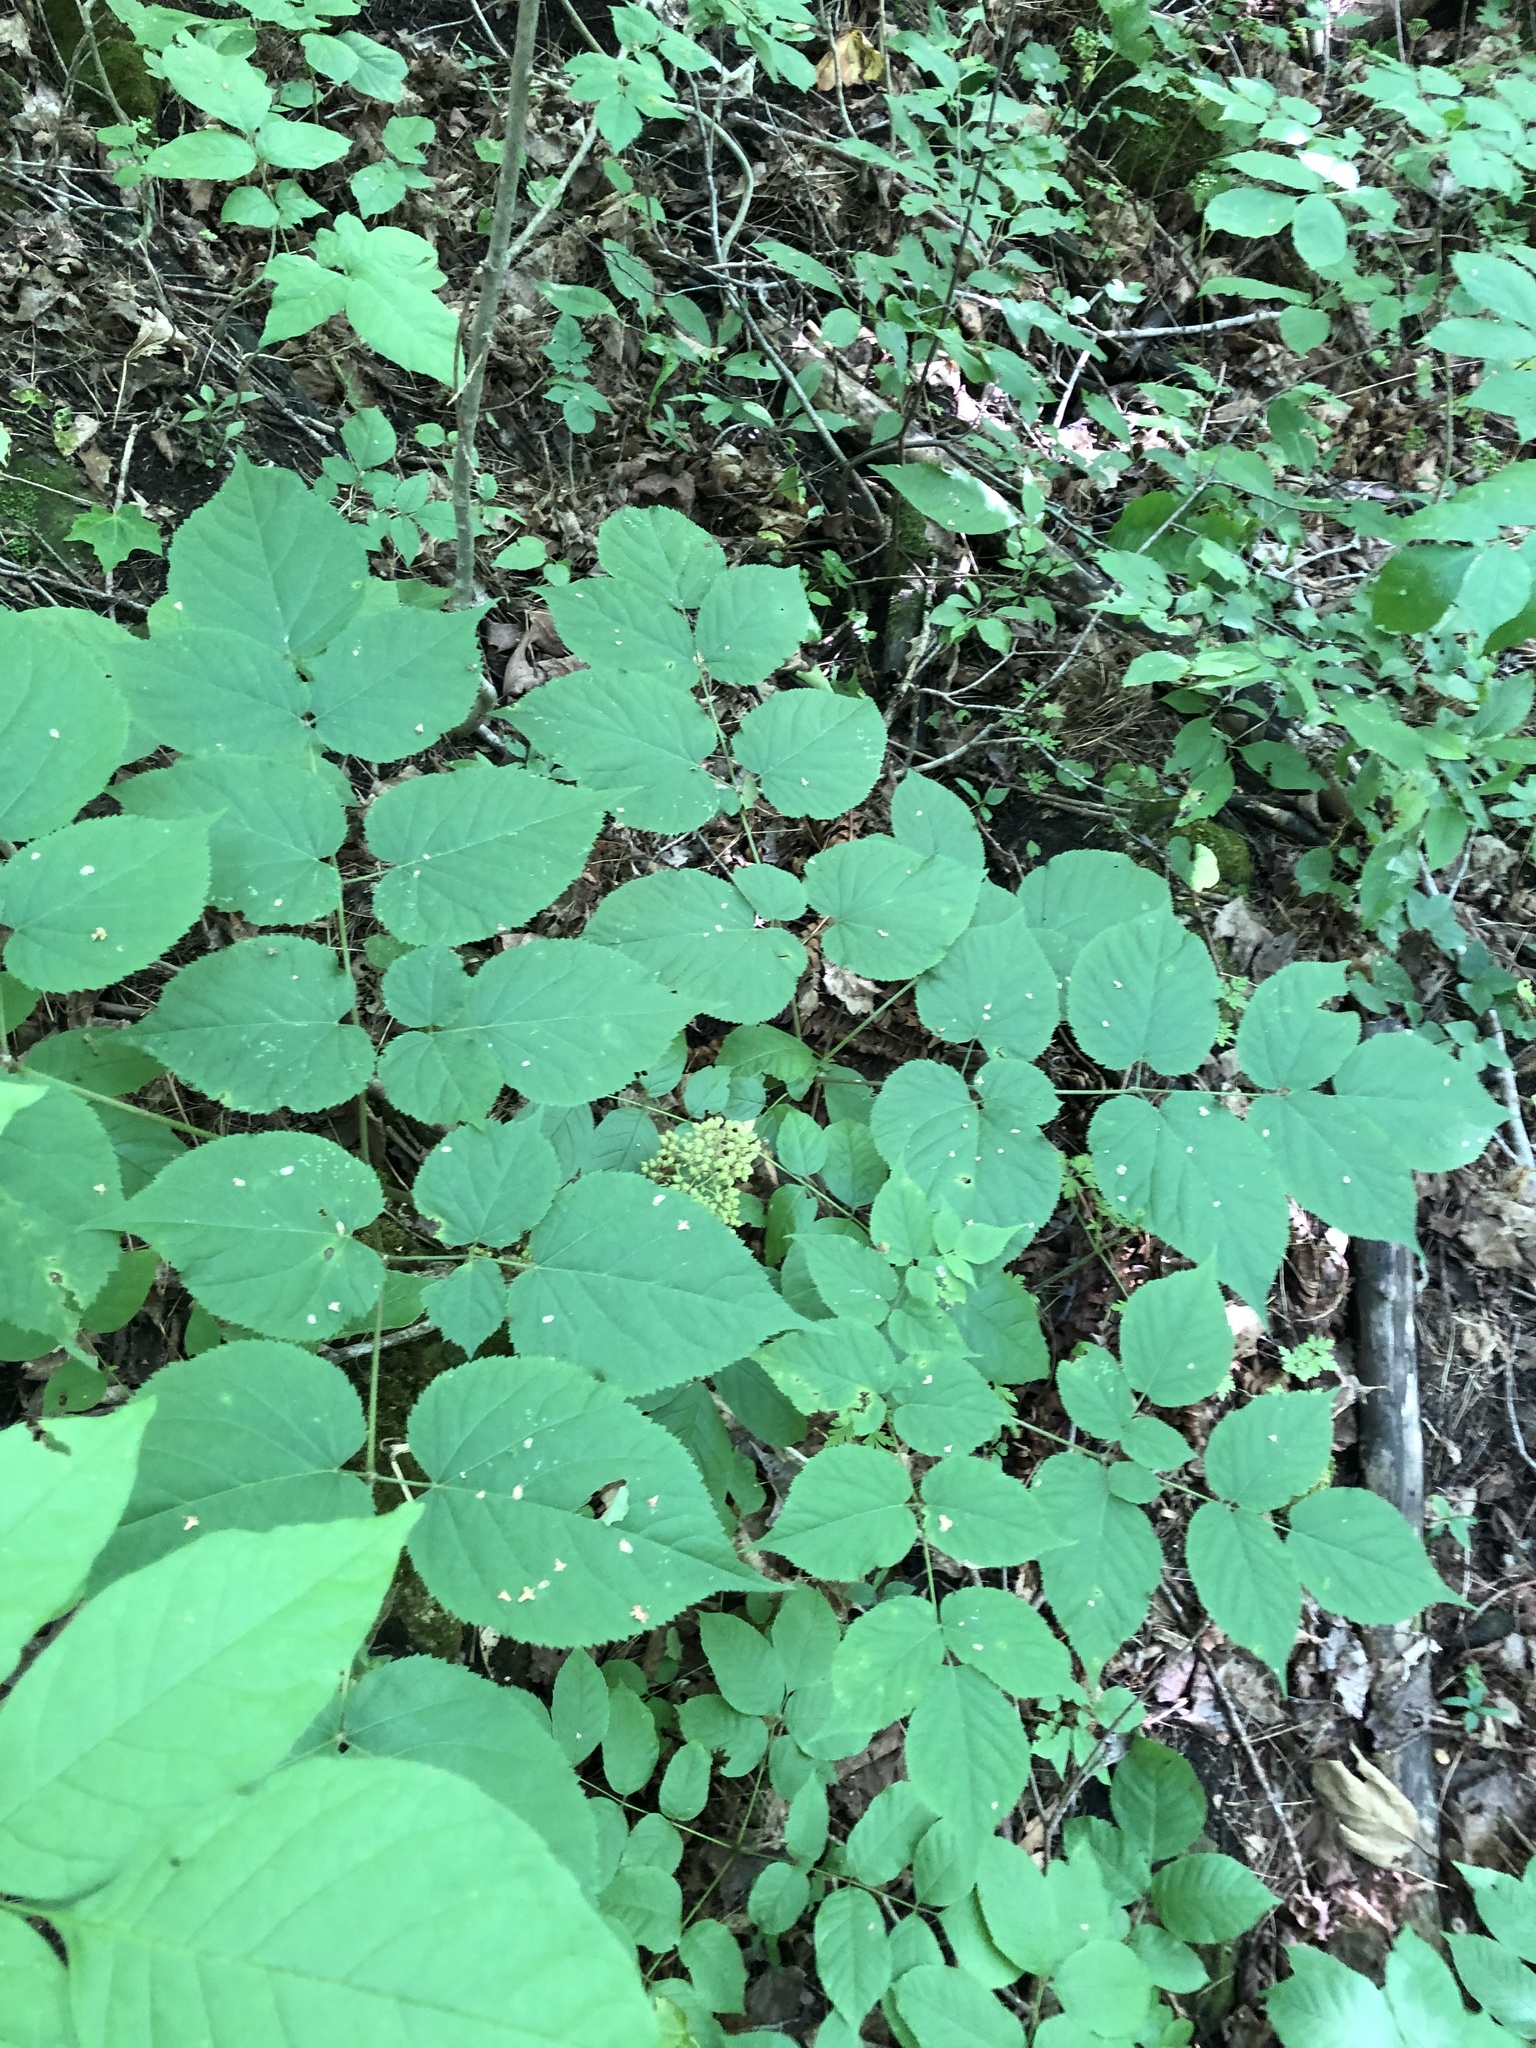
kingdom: Plantae
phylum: Tracheophyta
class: Magnoliopsida
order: Apiales
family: Araliaceae
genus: Aralia
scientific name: Aralia racemosa
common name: American-spikenard
